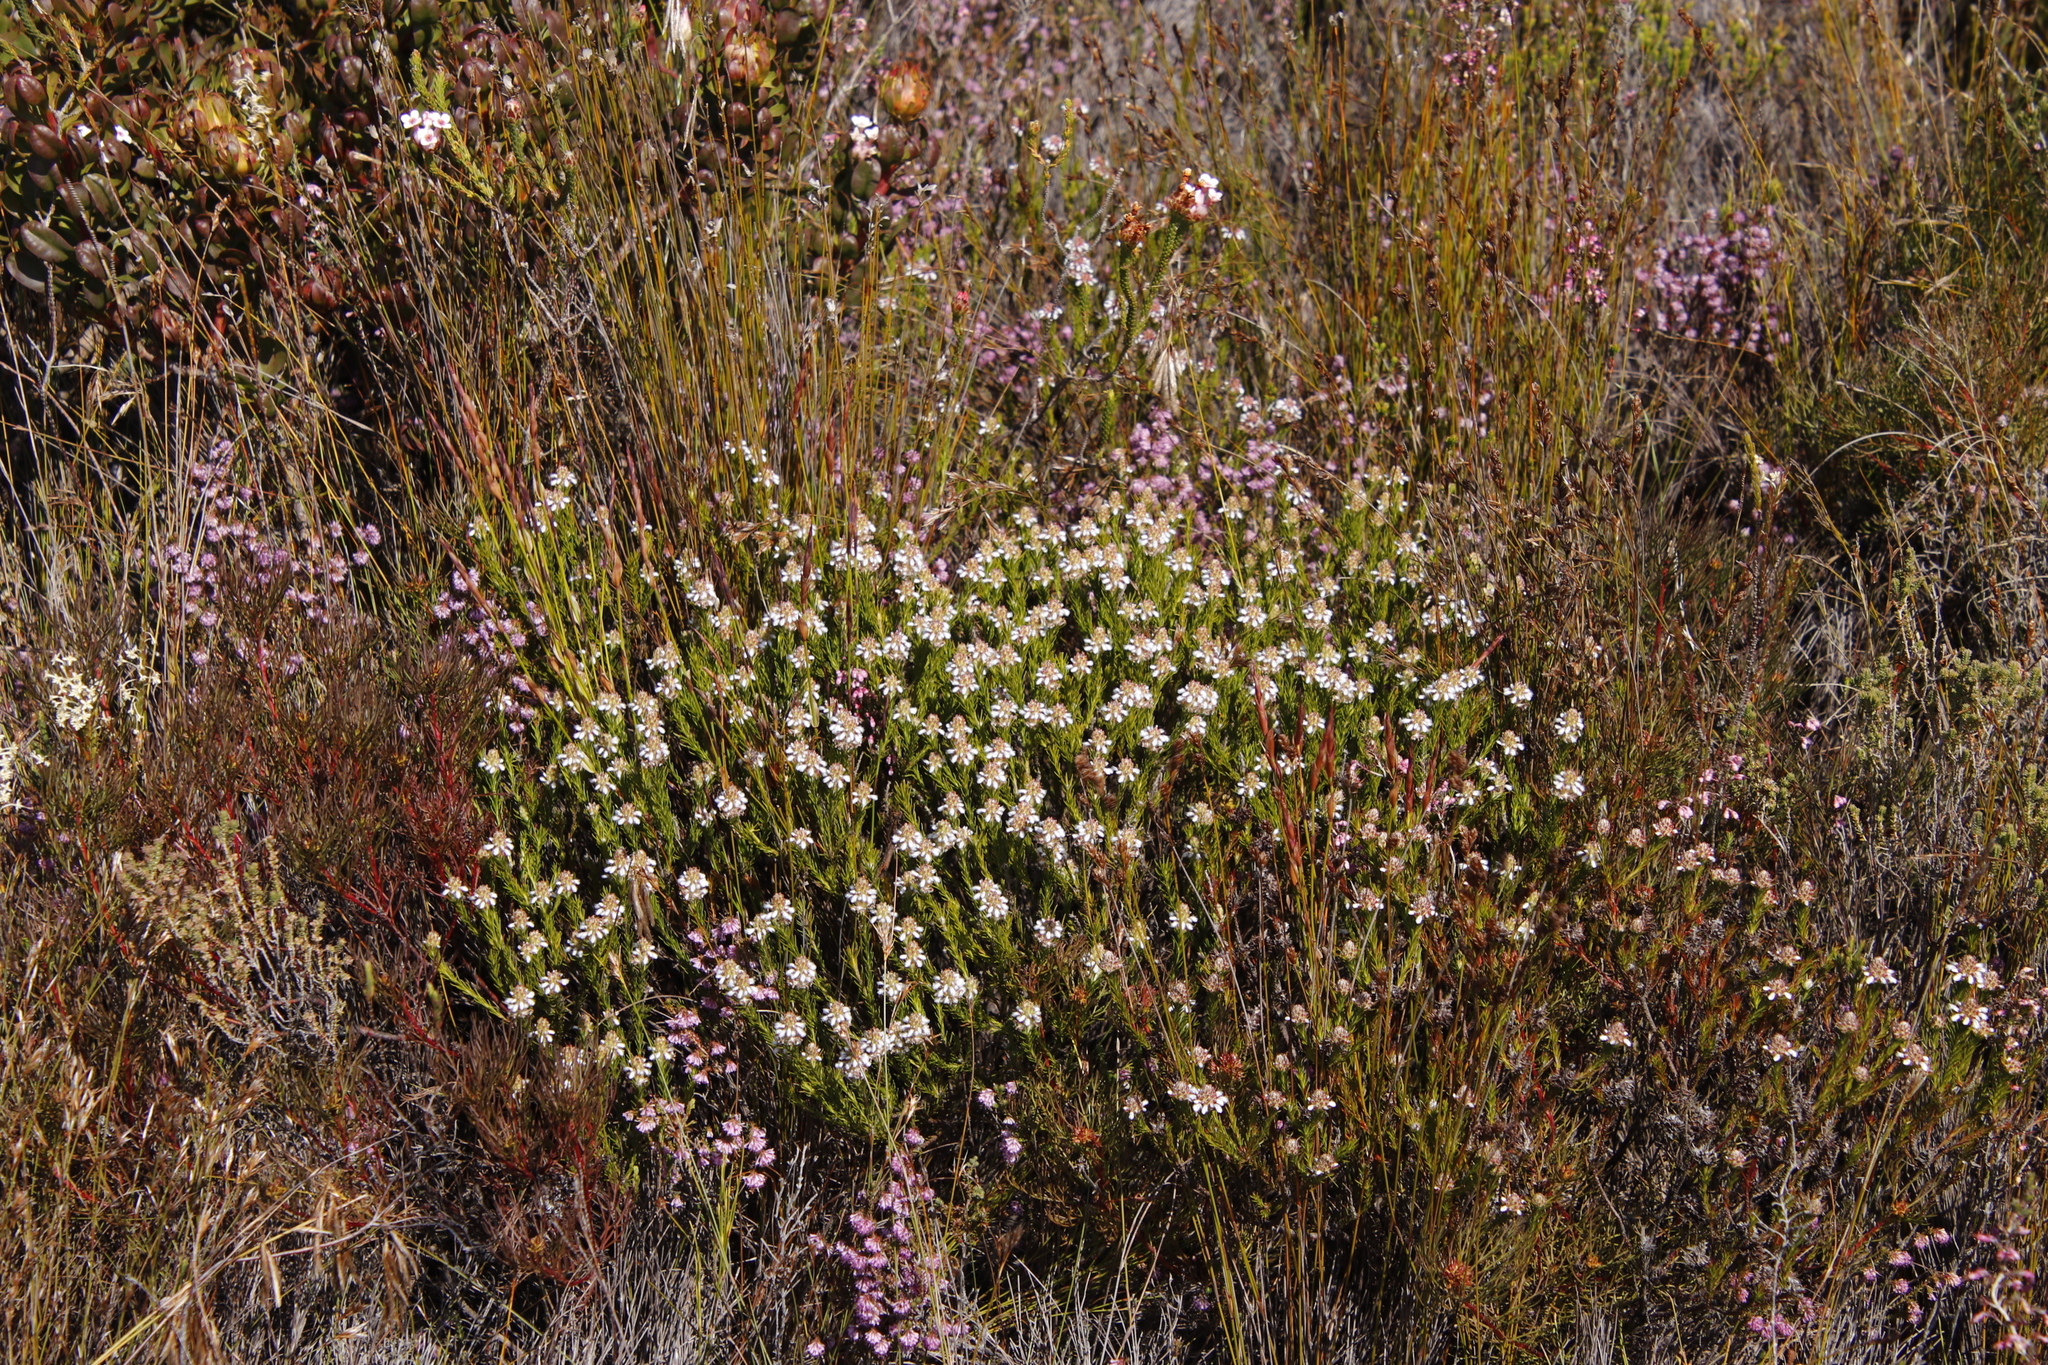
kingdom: Plantae
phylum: Tracheophyta
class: Magnoliopsida
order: Proteales
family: Proteaceae
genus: Spatalla
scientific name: Spatalla squamata
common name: Silky spoon
